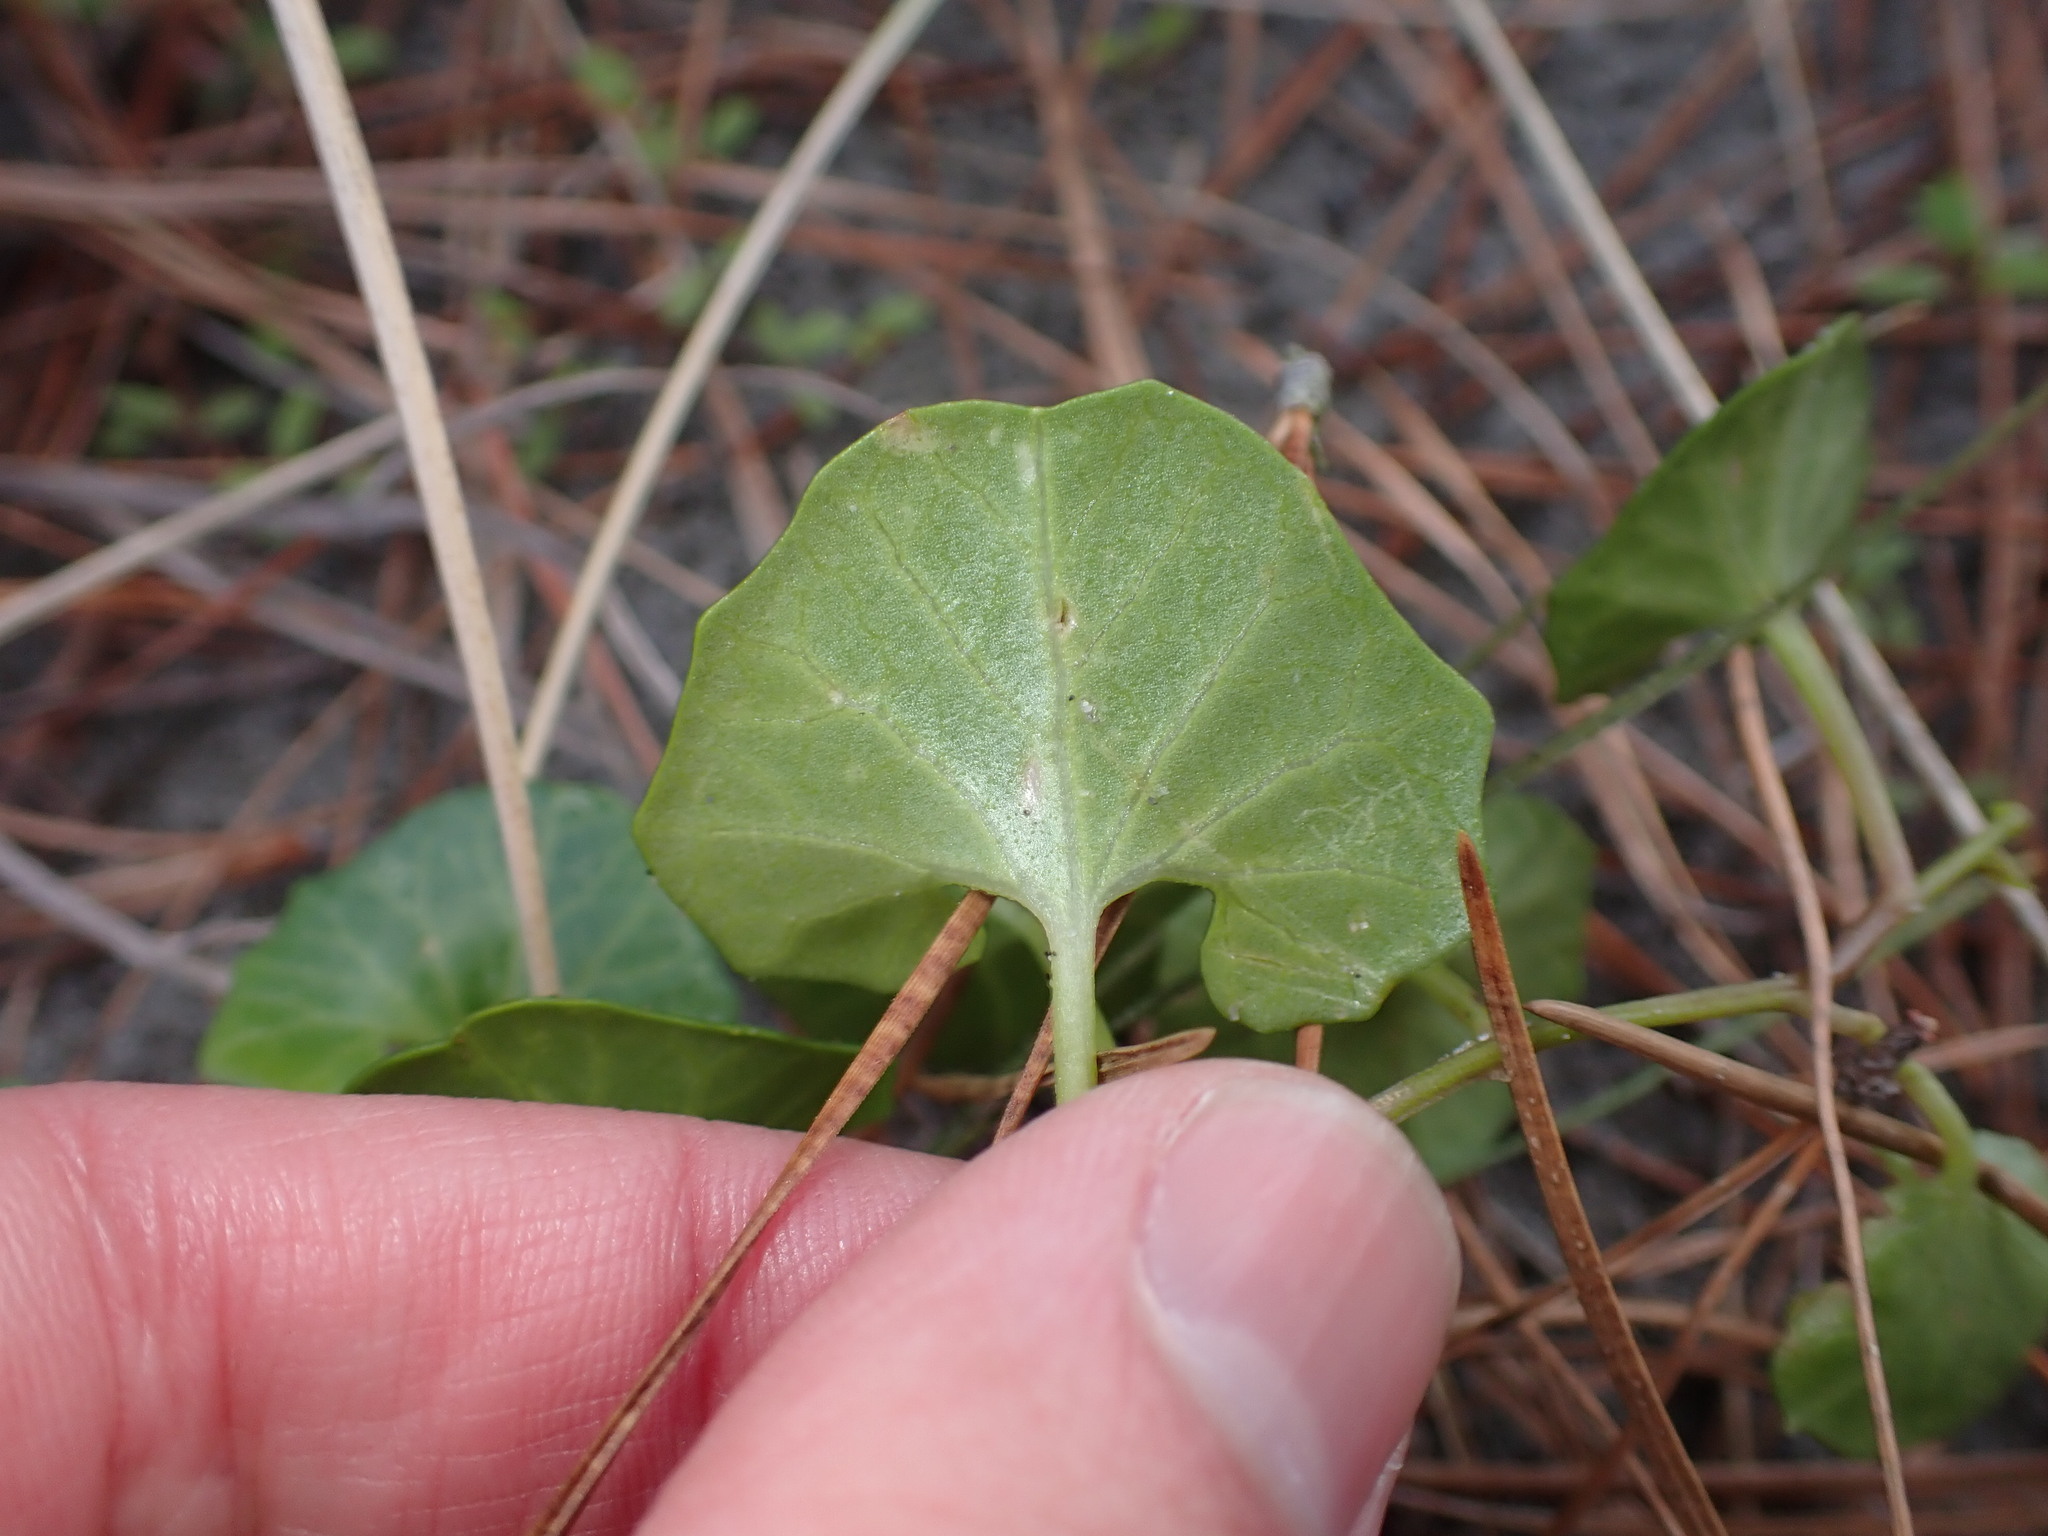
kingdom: Plantae
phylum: Tracheophyta
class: Magnoliopsida
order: Solanales
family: Convolvulaceae
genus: Calystegia
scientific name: Calystegia soldanella
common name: Sea bindweed
